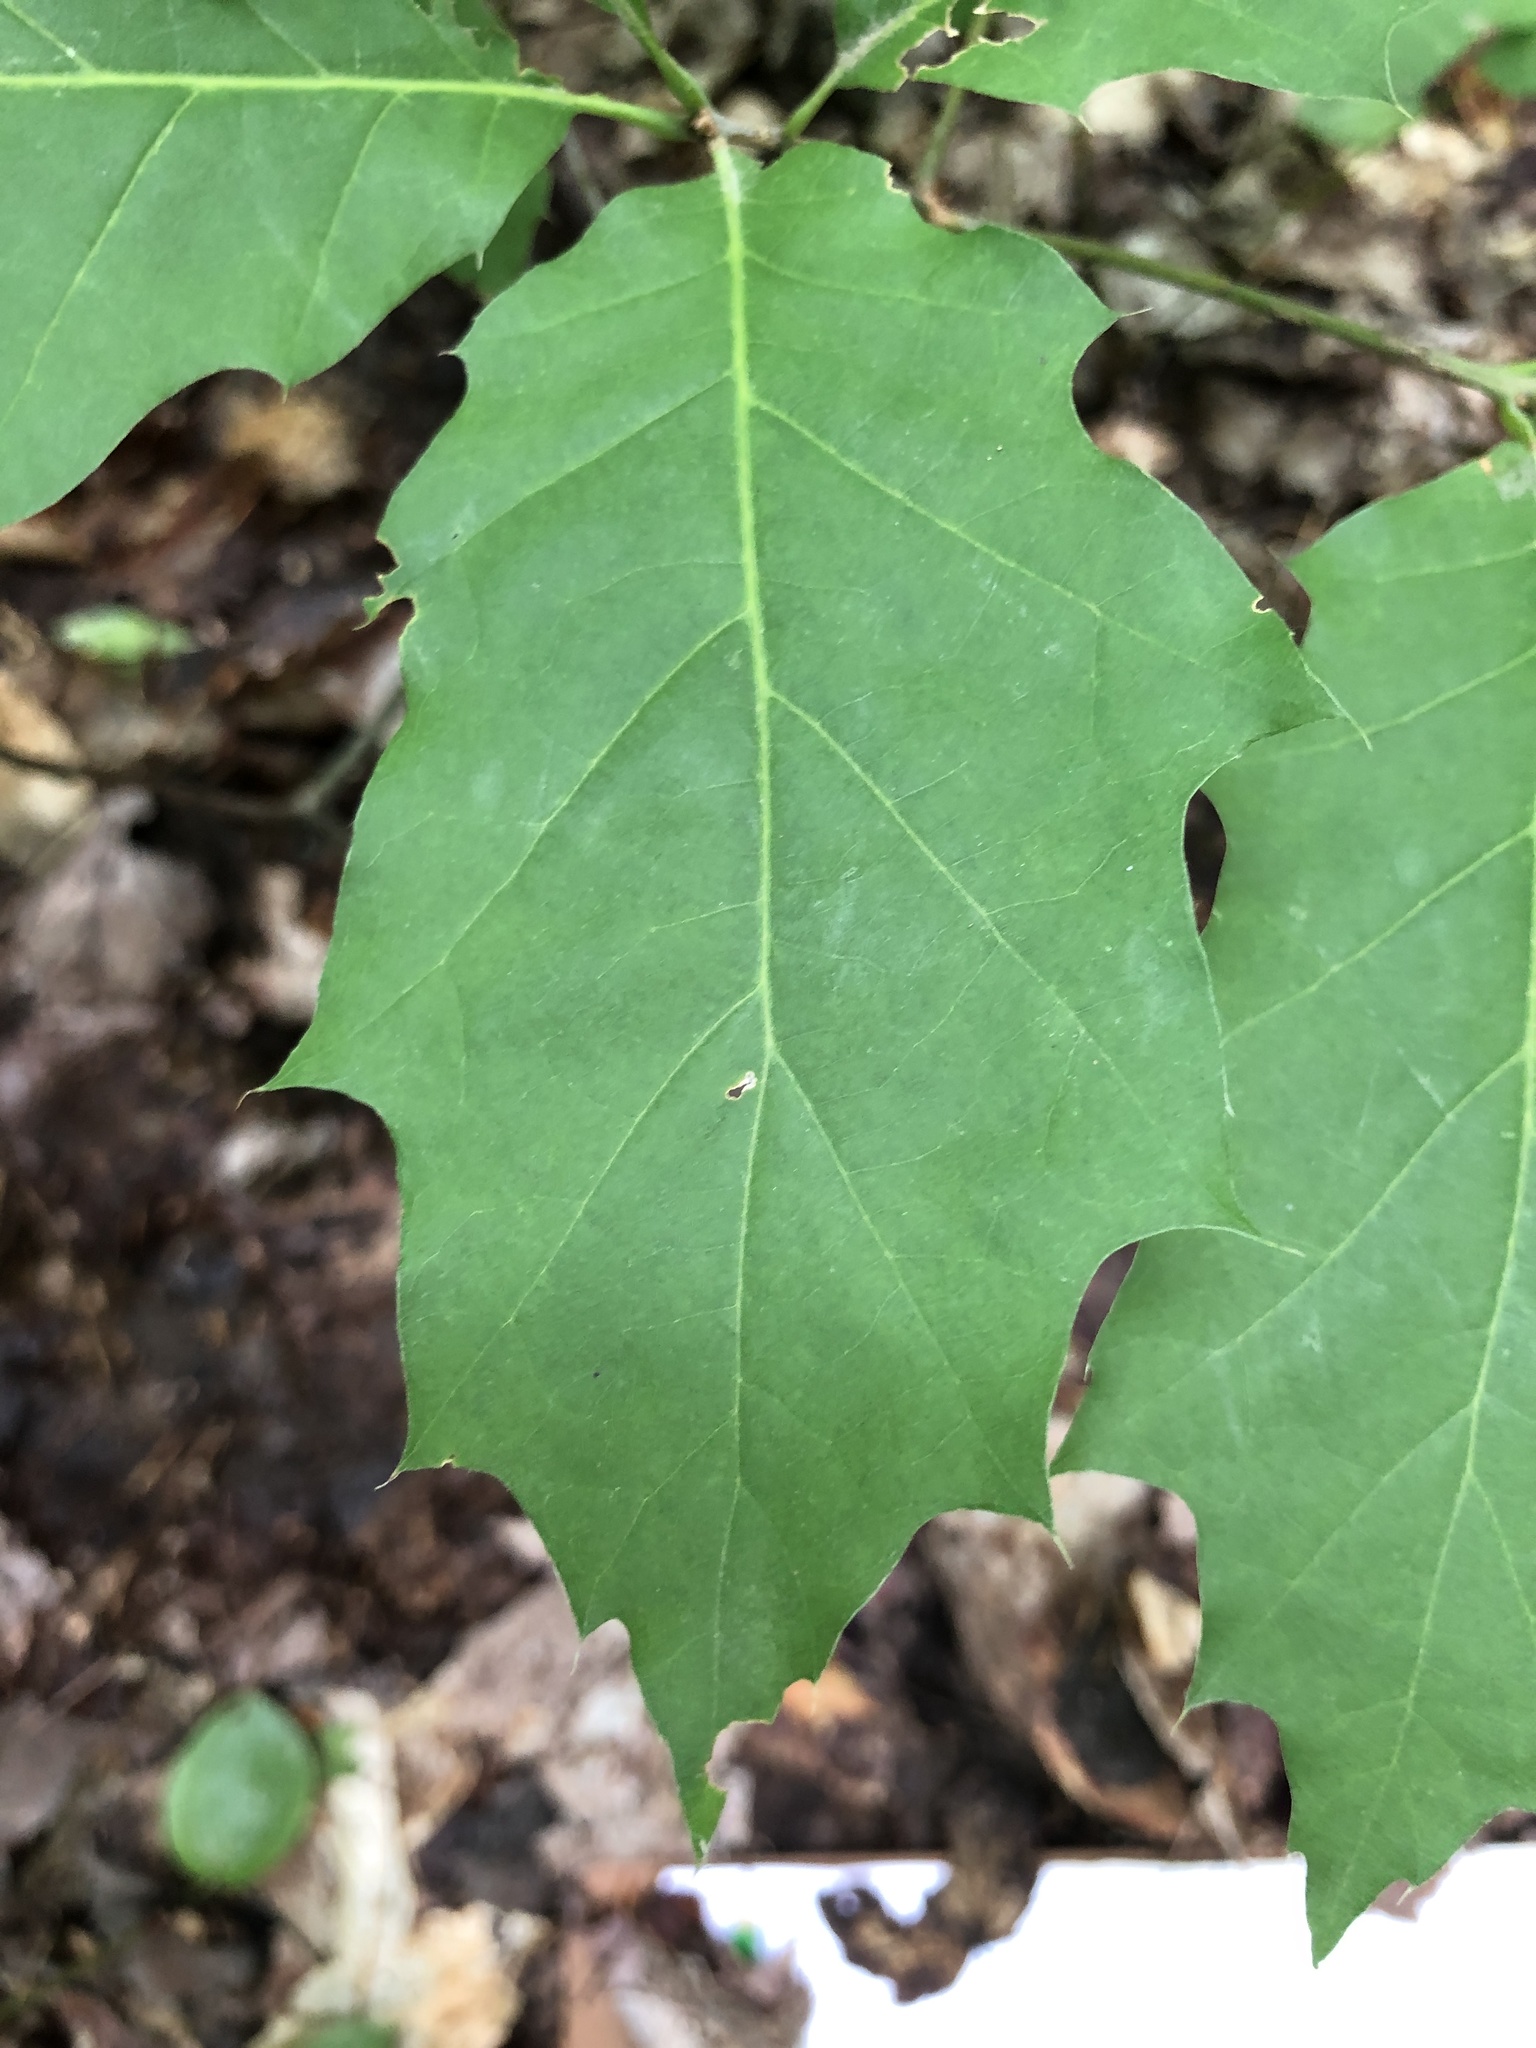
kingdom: Plantae
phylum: Tracheophyta
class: Magnoliopsida
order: Fagales
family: Fagaceae
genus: Quercus
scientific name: Quercus rubra
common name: Red oak
